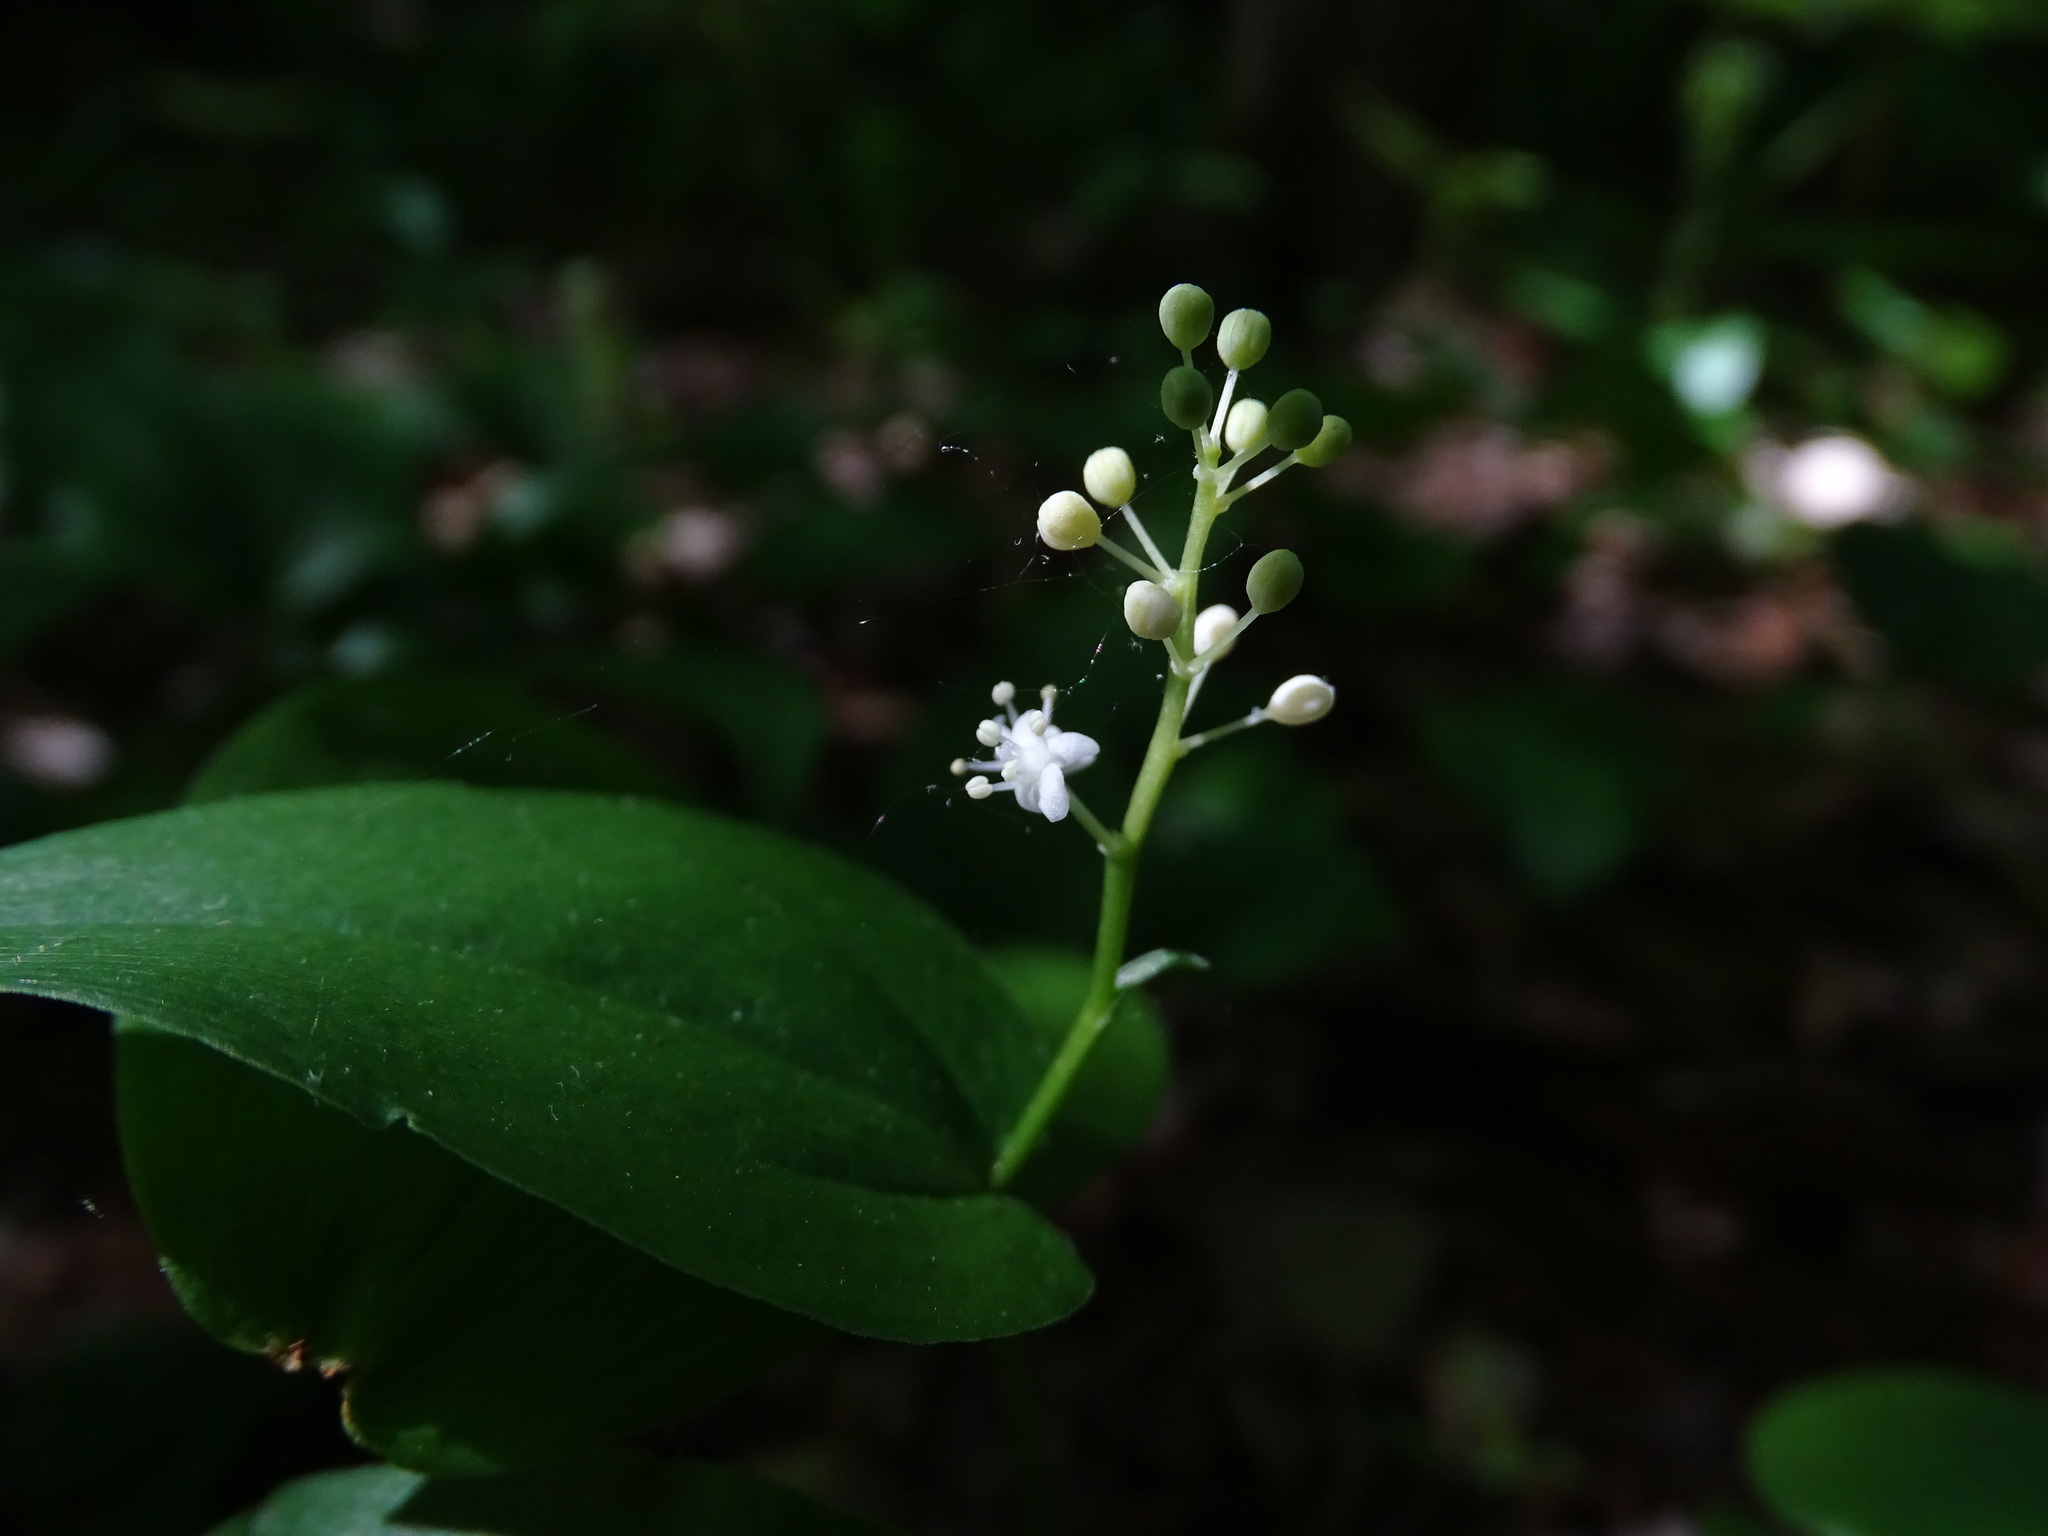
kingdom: Plantae
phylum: Tracheophyta
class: Liliopsida
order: Asparagales
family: Asparagaceae
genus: Maianthemum
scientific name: Maianthemum canadense
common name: False lily-of-the-valley
